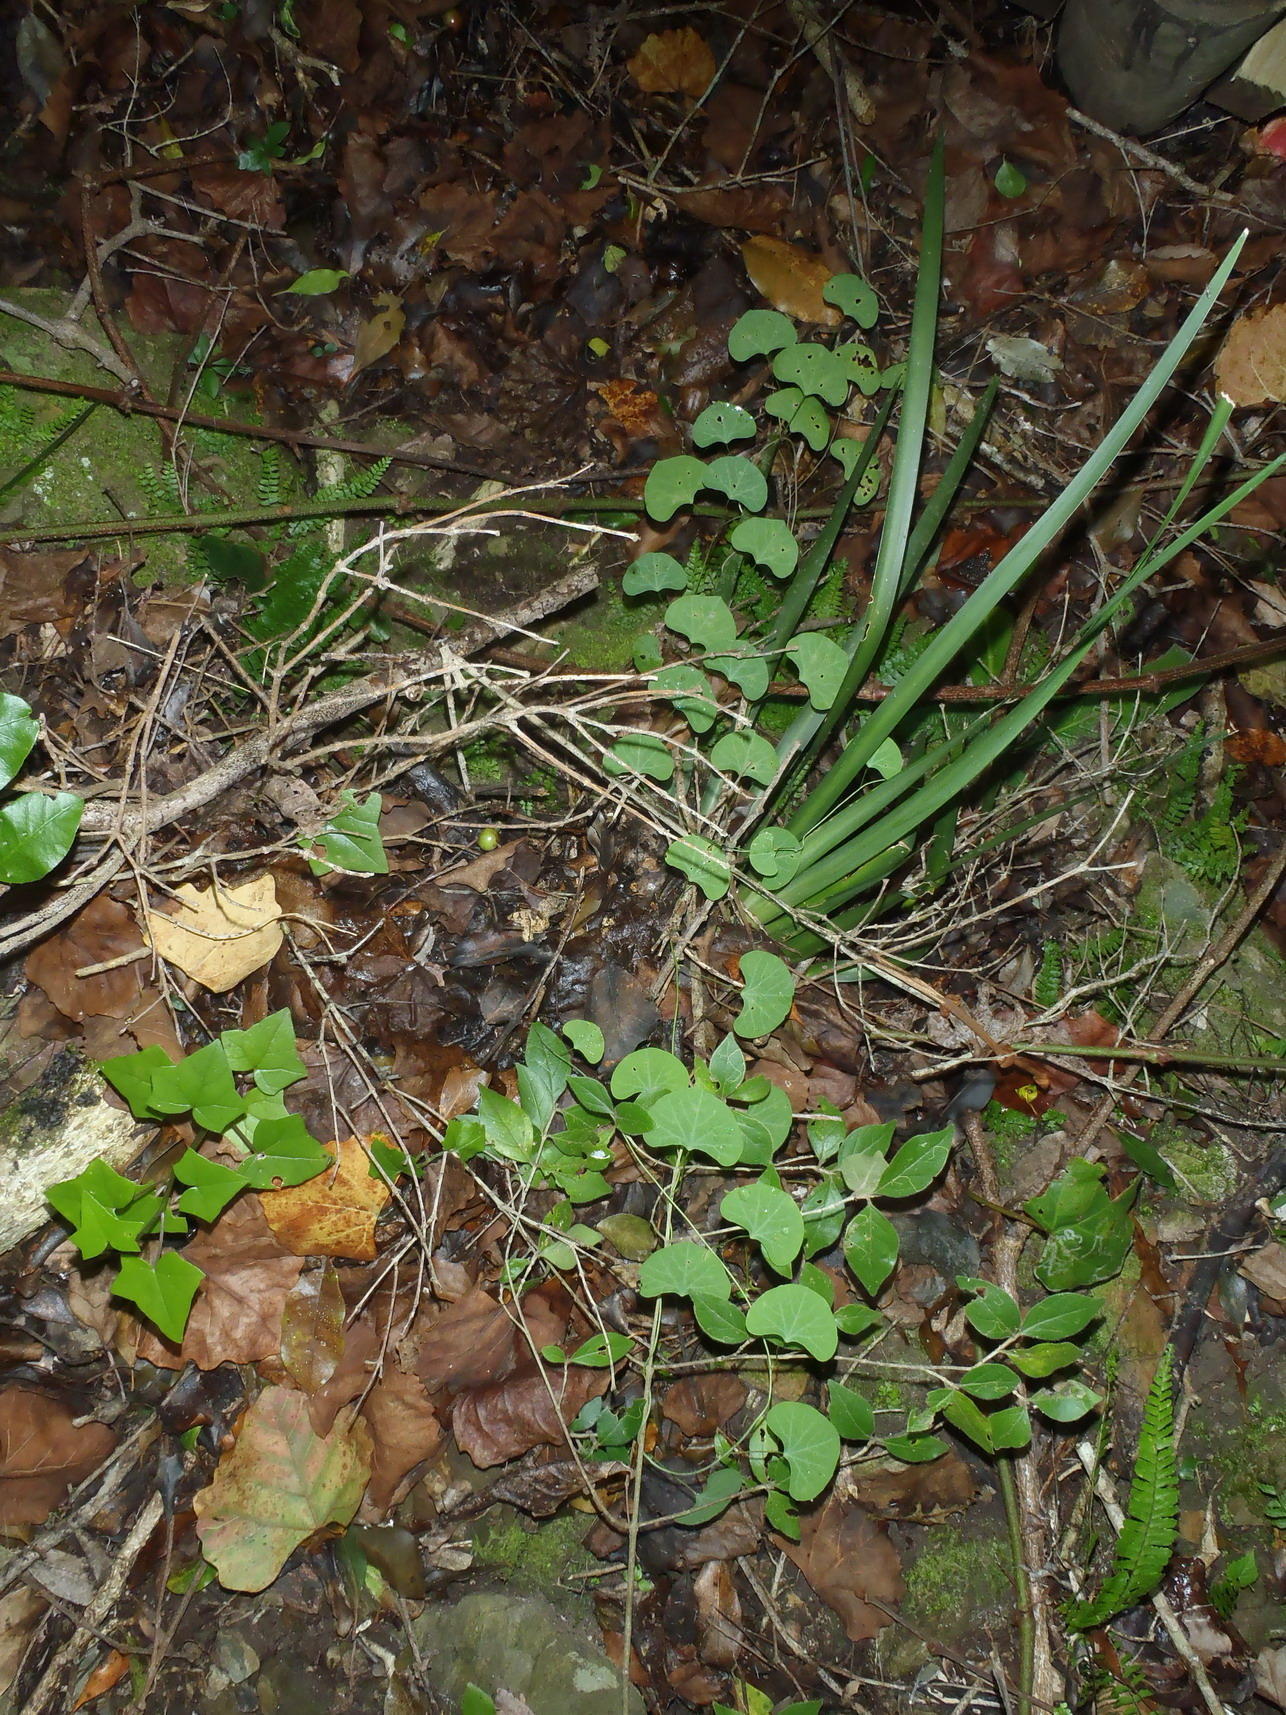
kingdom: Plantae
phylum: Tracheophyta
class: Magnoliopsida
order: Ranunculales
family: Menispermaceae
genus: Cissampelos
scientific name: Cissampelos torulosa
